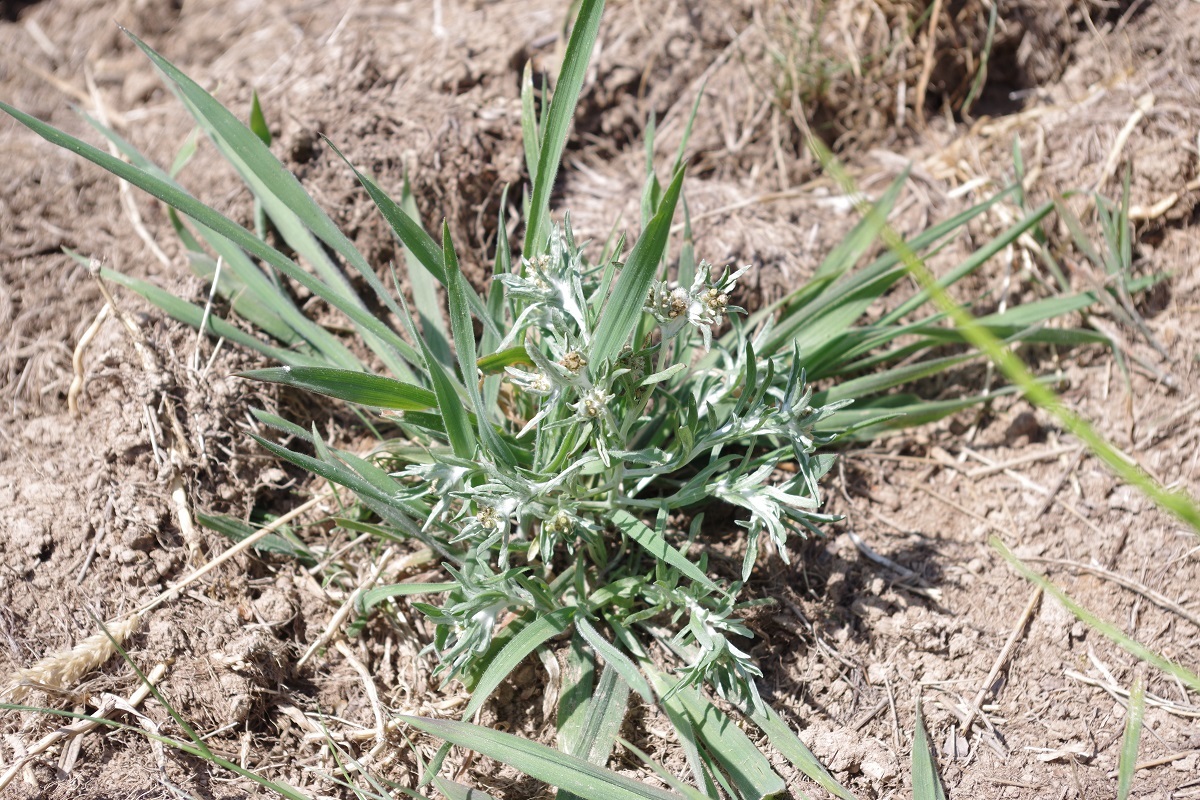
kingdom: Plantae
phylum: Tracheophyta
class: Magnoliopsida
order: Asterales
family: Asteraceae
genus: Gnaphalium
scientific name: Gnaphalium uliginosum
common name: Marsh cudweed
